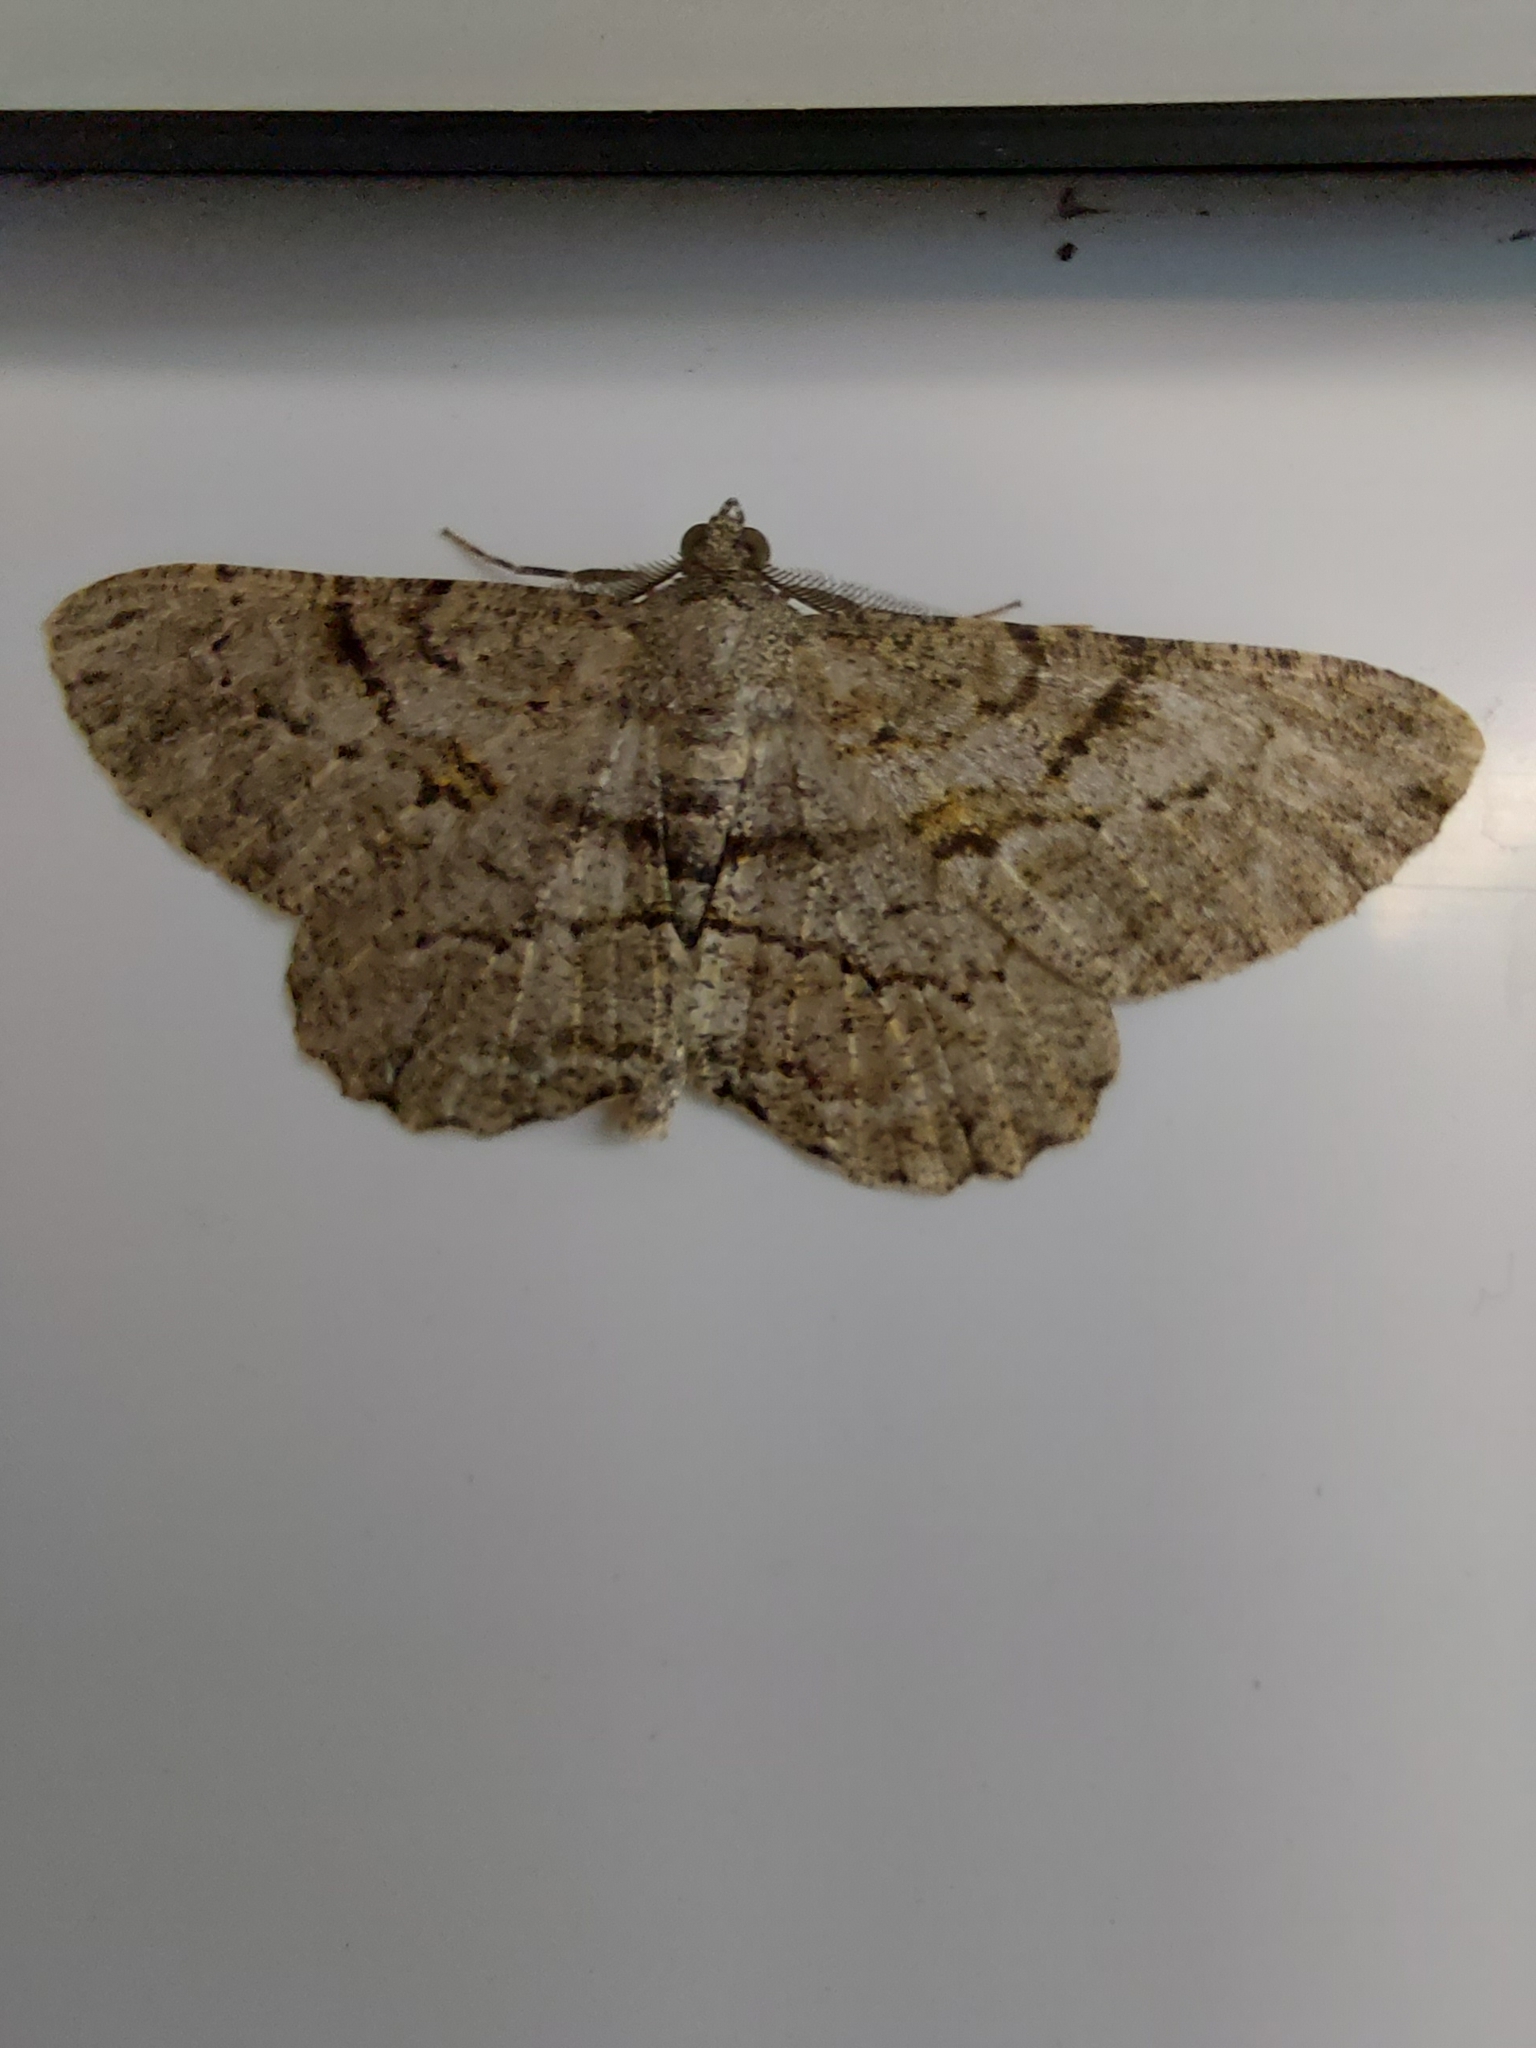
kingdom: Animalia
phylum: Arthropoda
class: Insecta
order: Lepidoptera
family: Geometridae
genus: Peribatodes
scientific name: Peribatodes rhomboidaria
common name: Willow beauty
